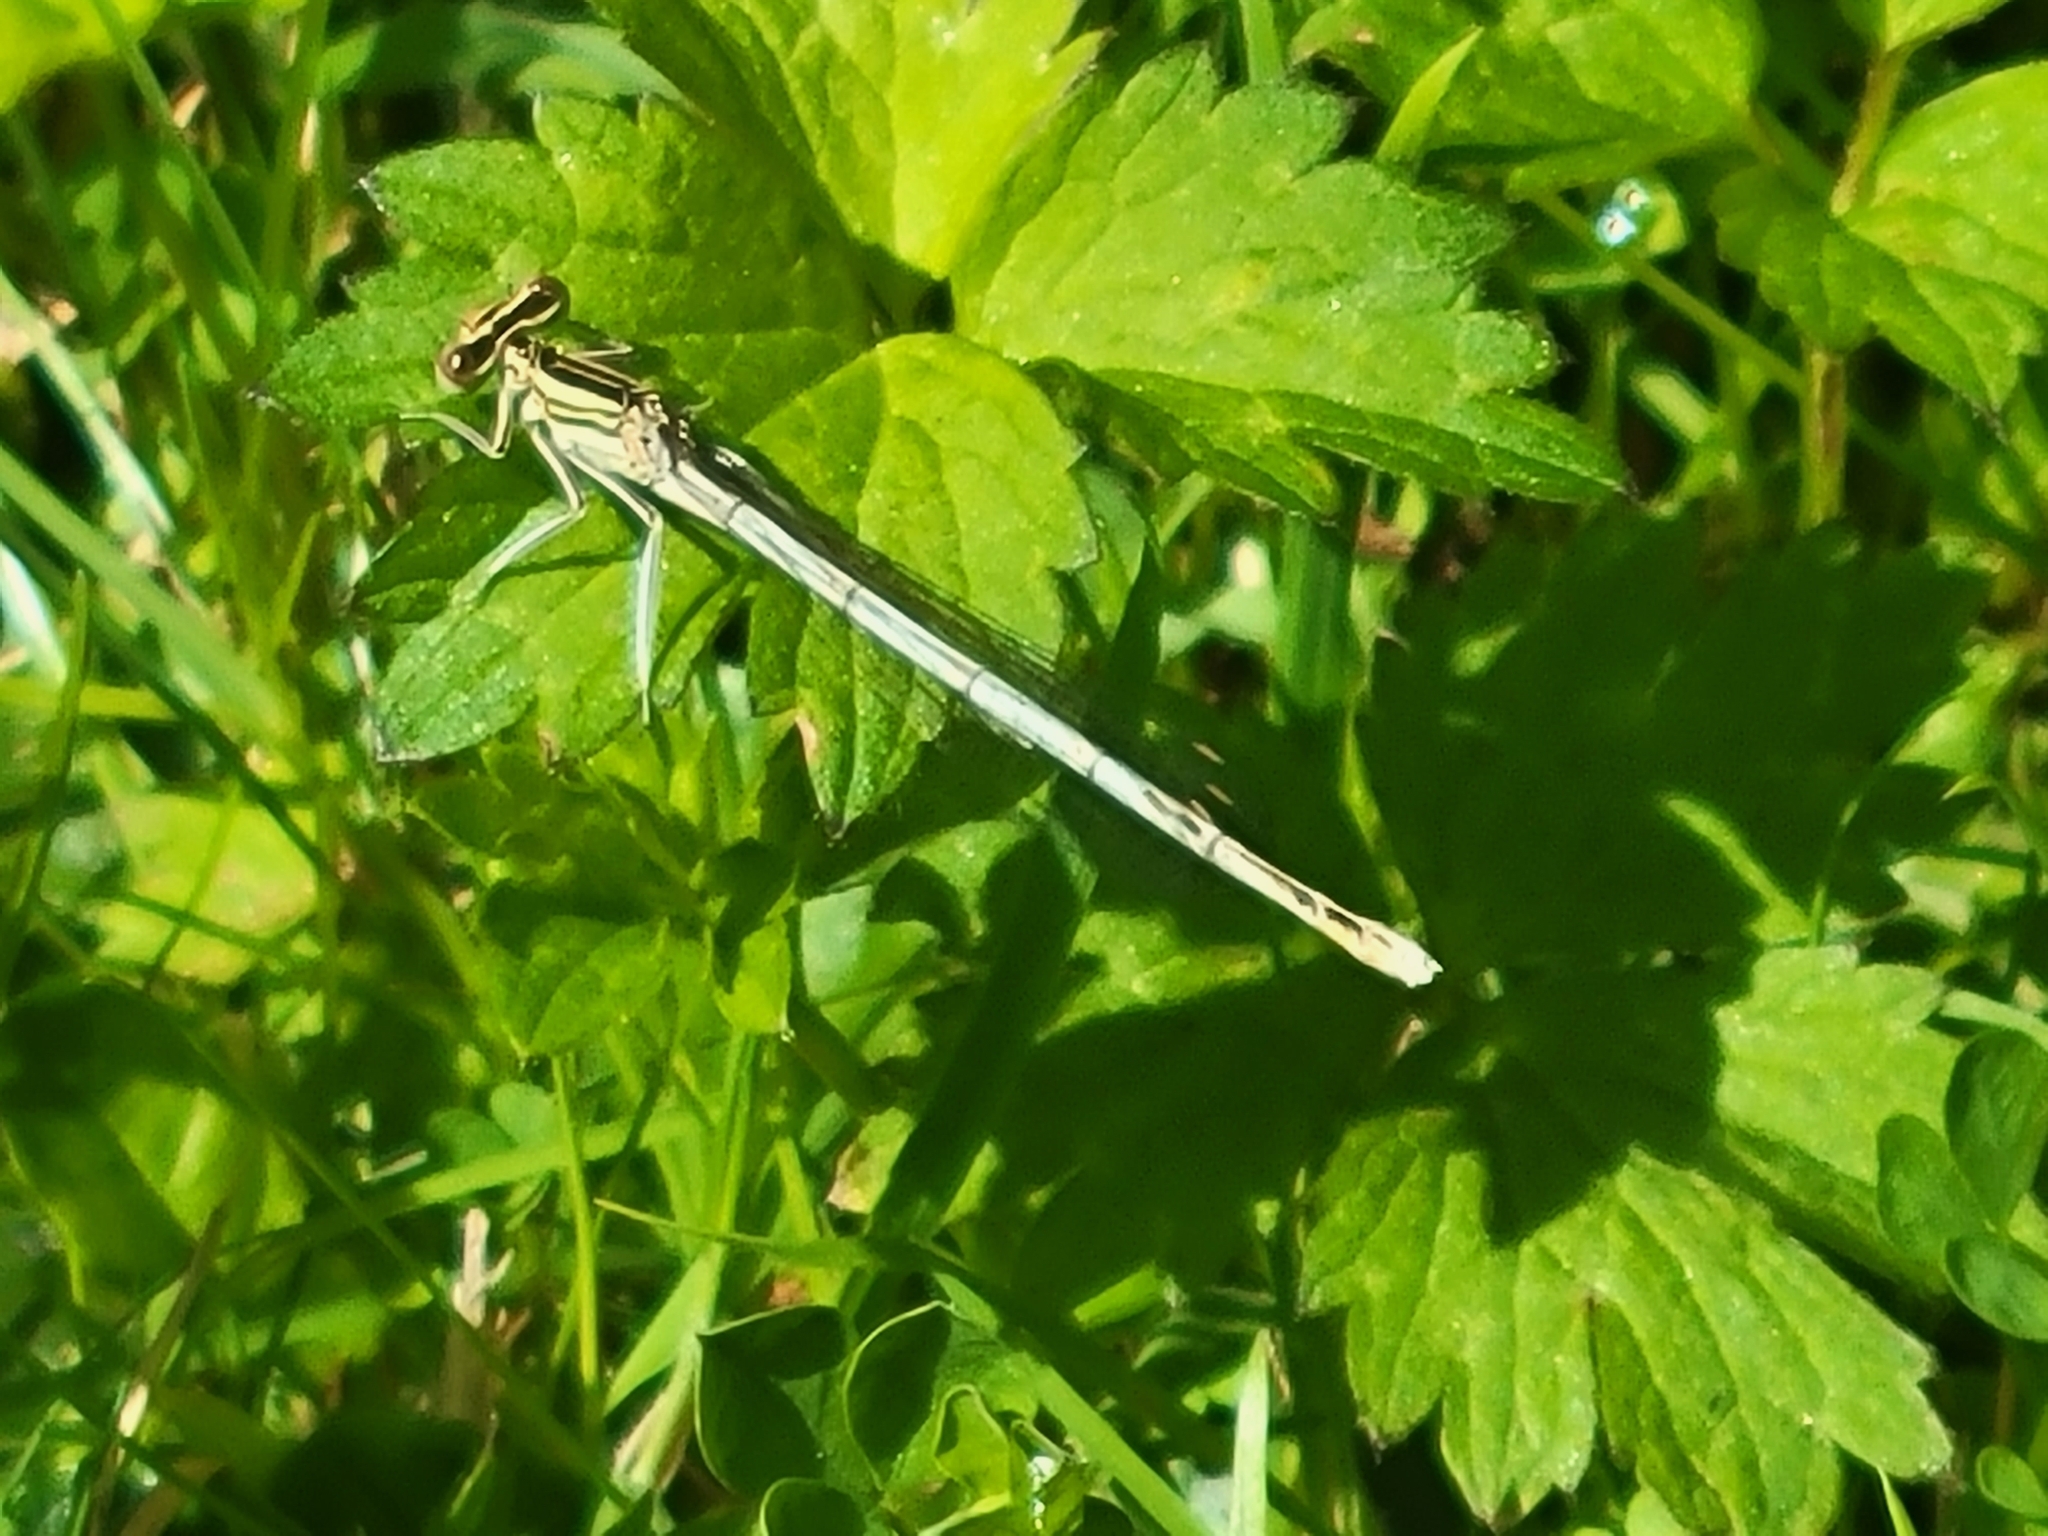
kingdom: Animalia
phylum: Arthropoda
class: Insecta
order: Odonata
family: Platycnemididae
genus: Platycnemis
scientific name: Platycnemis pennipes
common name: White-legged damselfly
